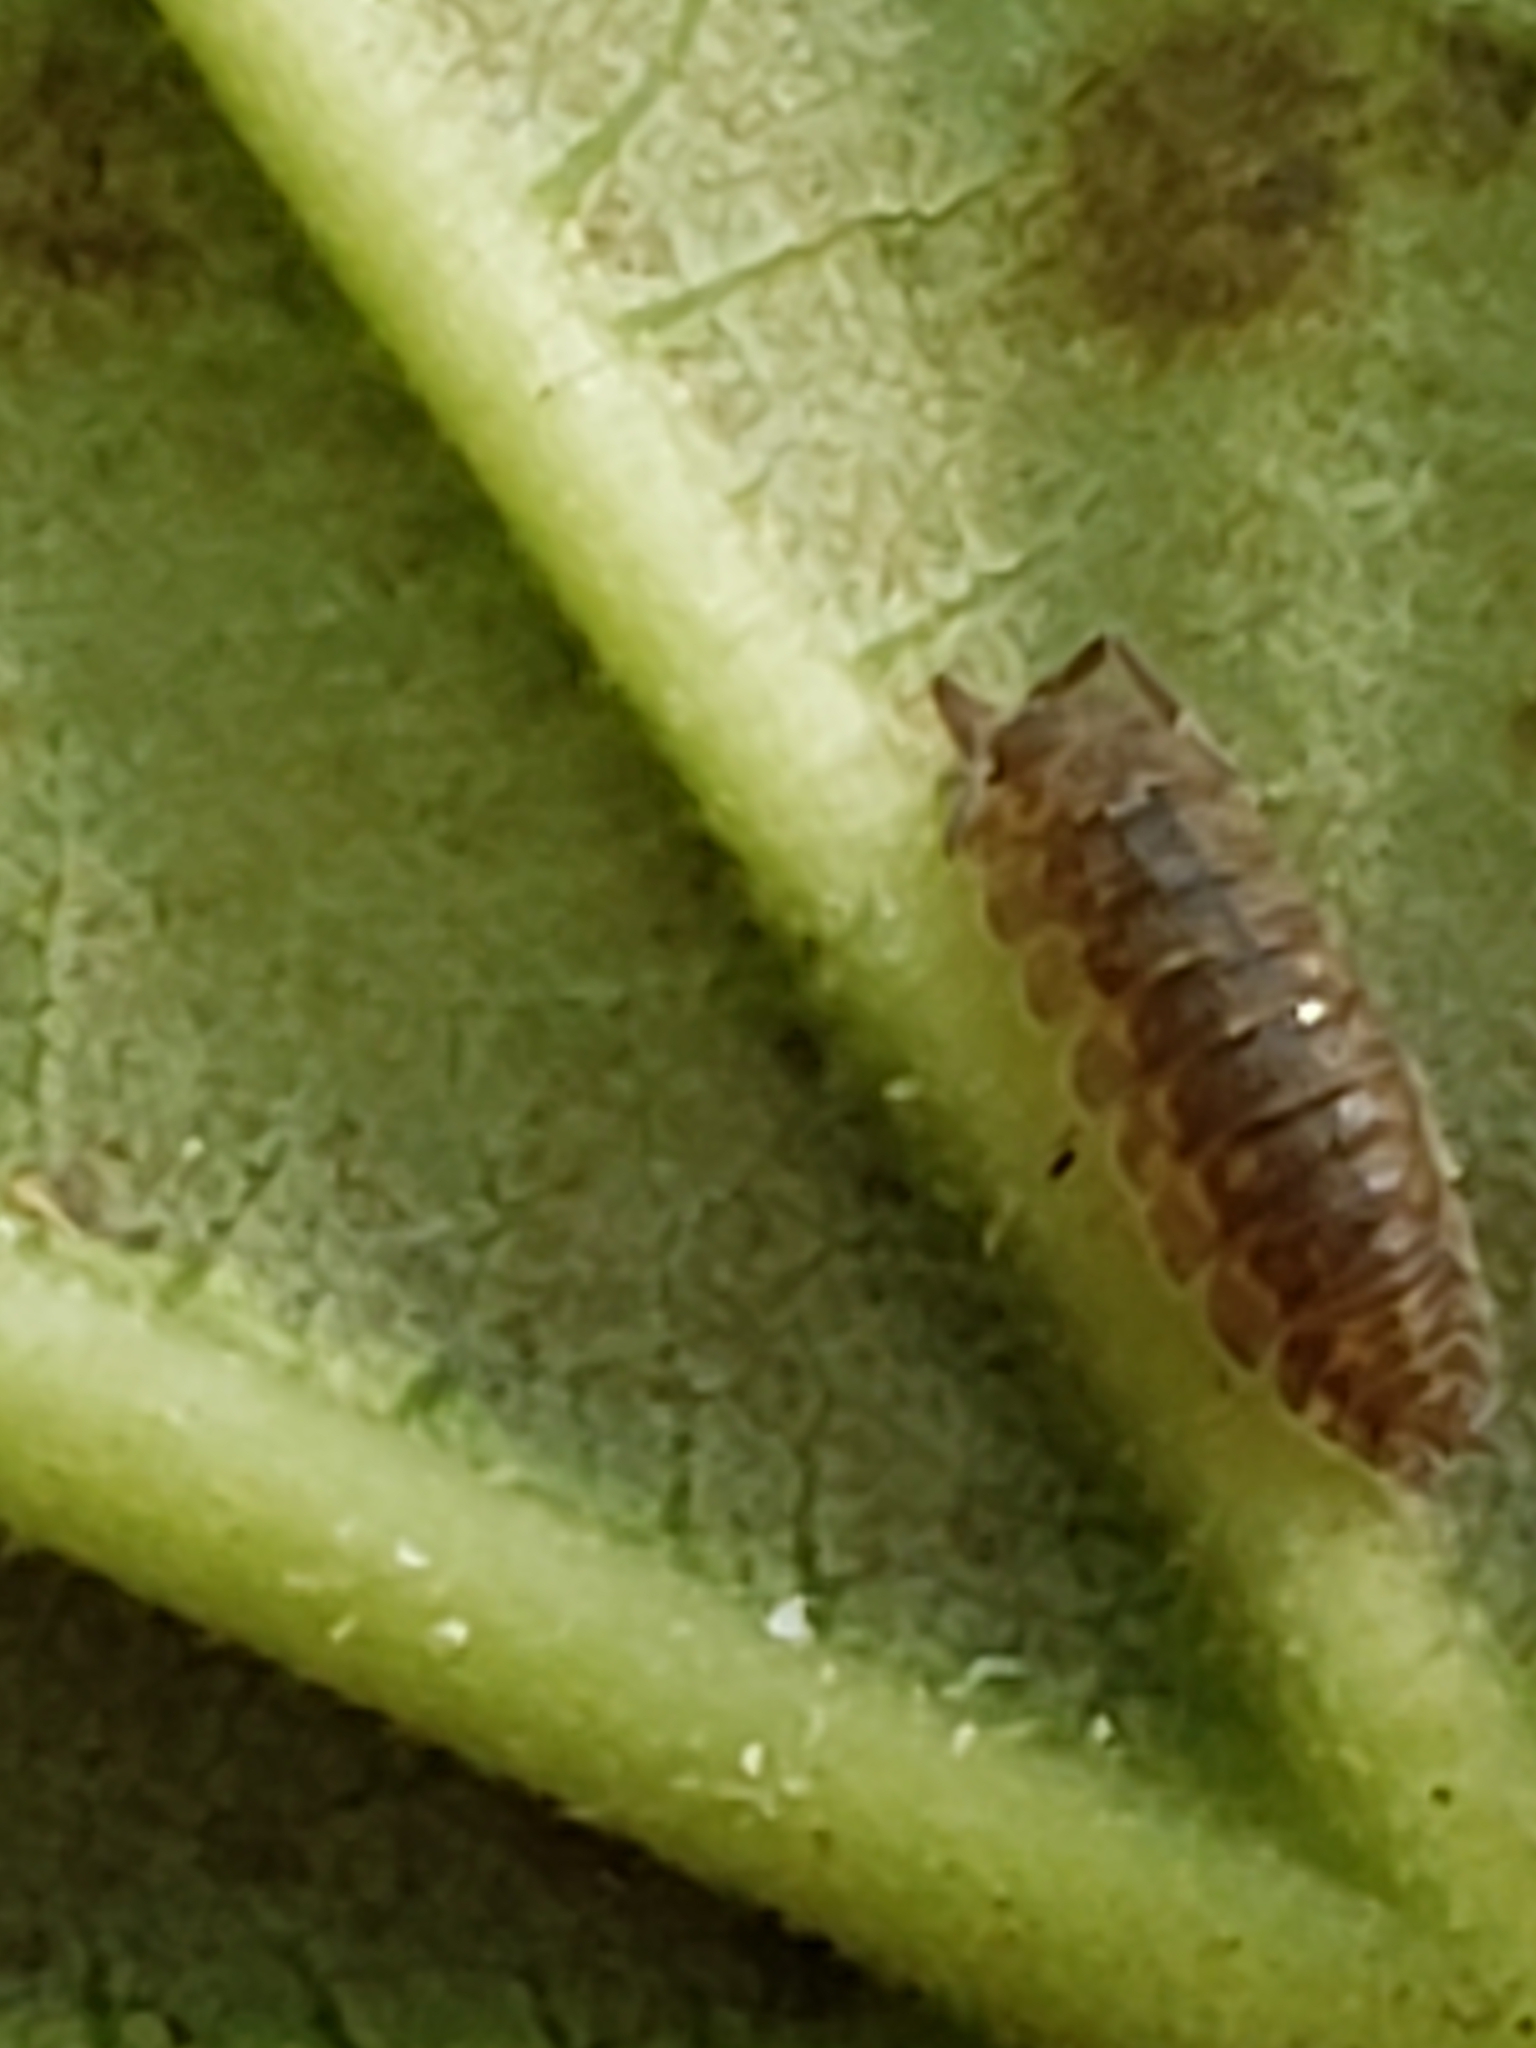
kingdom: Animalia
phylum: Arthropoda
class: Malacostraca
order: Isopoda
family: Trachelipodidae
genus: Trachelipus
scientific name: Trachelipus rathkii
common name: Isopod
